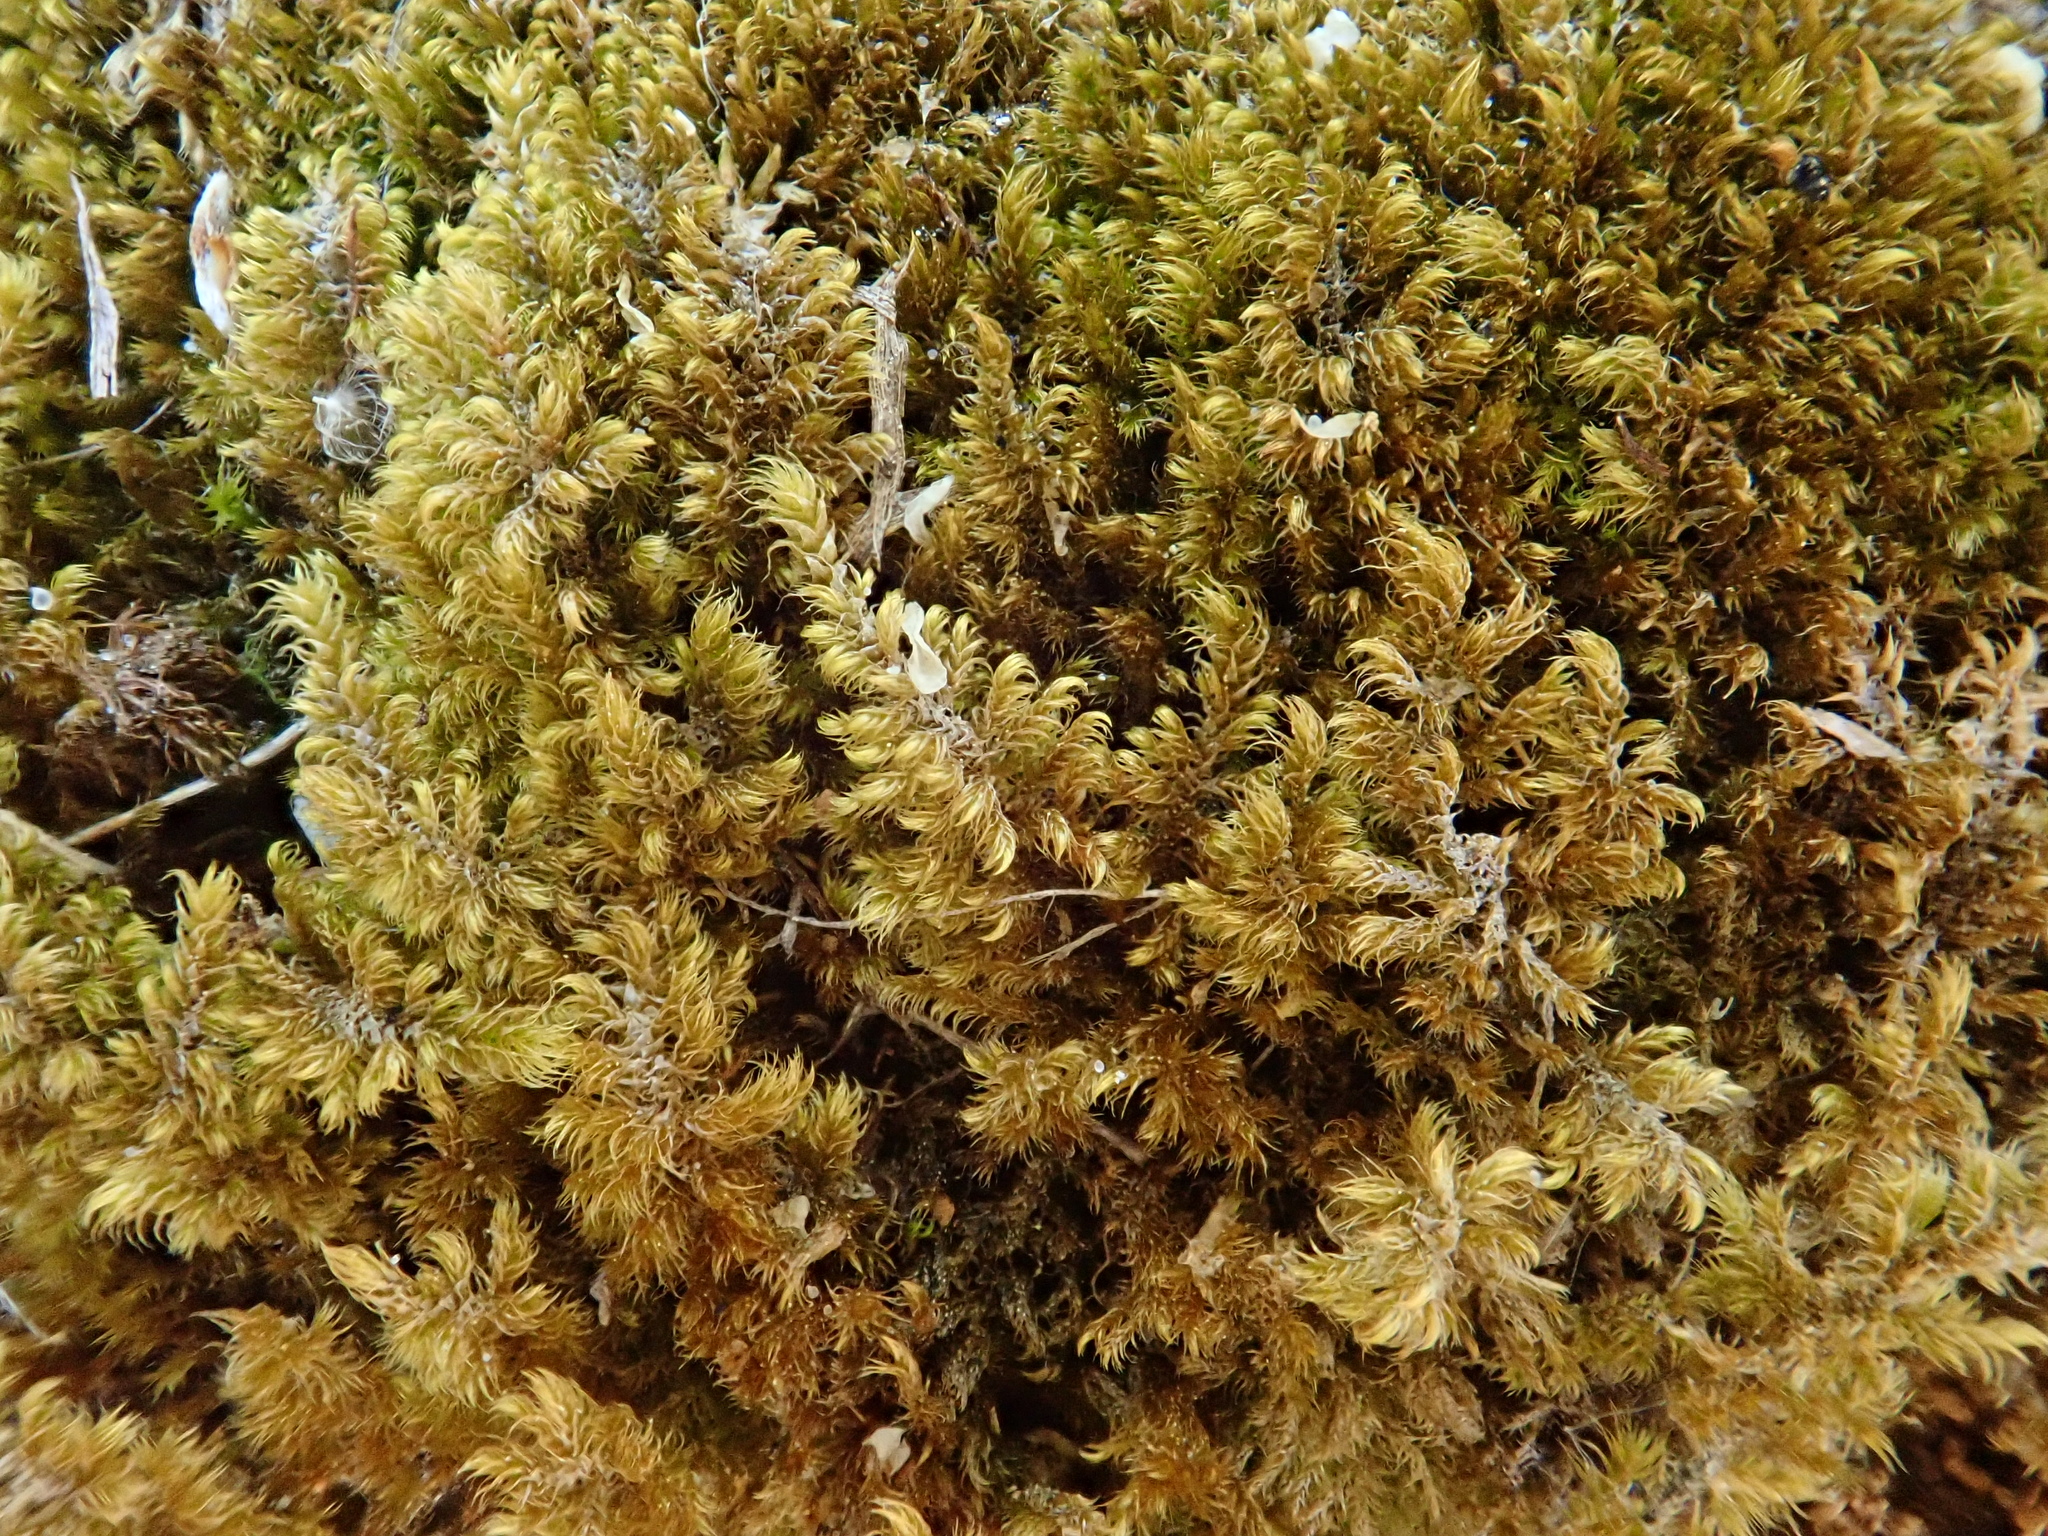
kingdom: Plantae
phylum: Bryophyta
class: Bryopsida
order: Hypnales
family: Myuriaceae
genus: Ctenidium
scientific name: Ctenidium molluscum
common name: Chalk comb-moss
